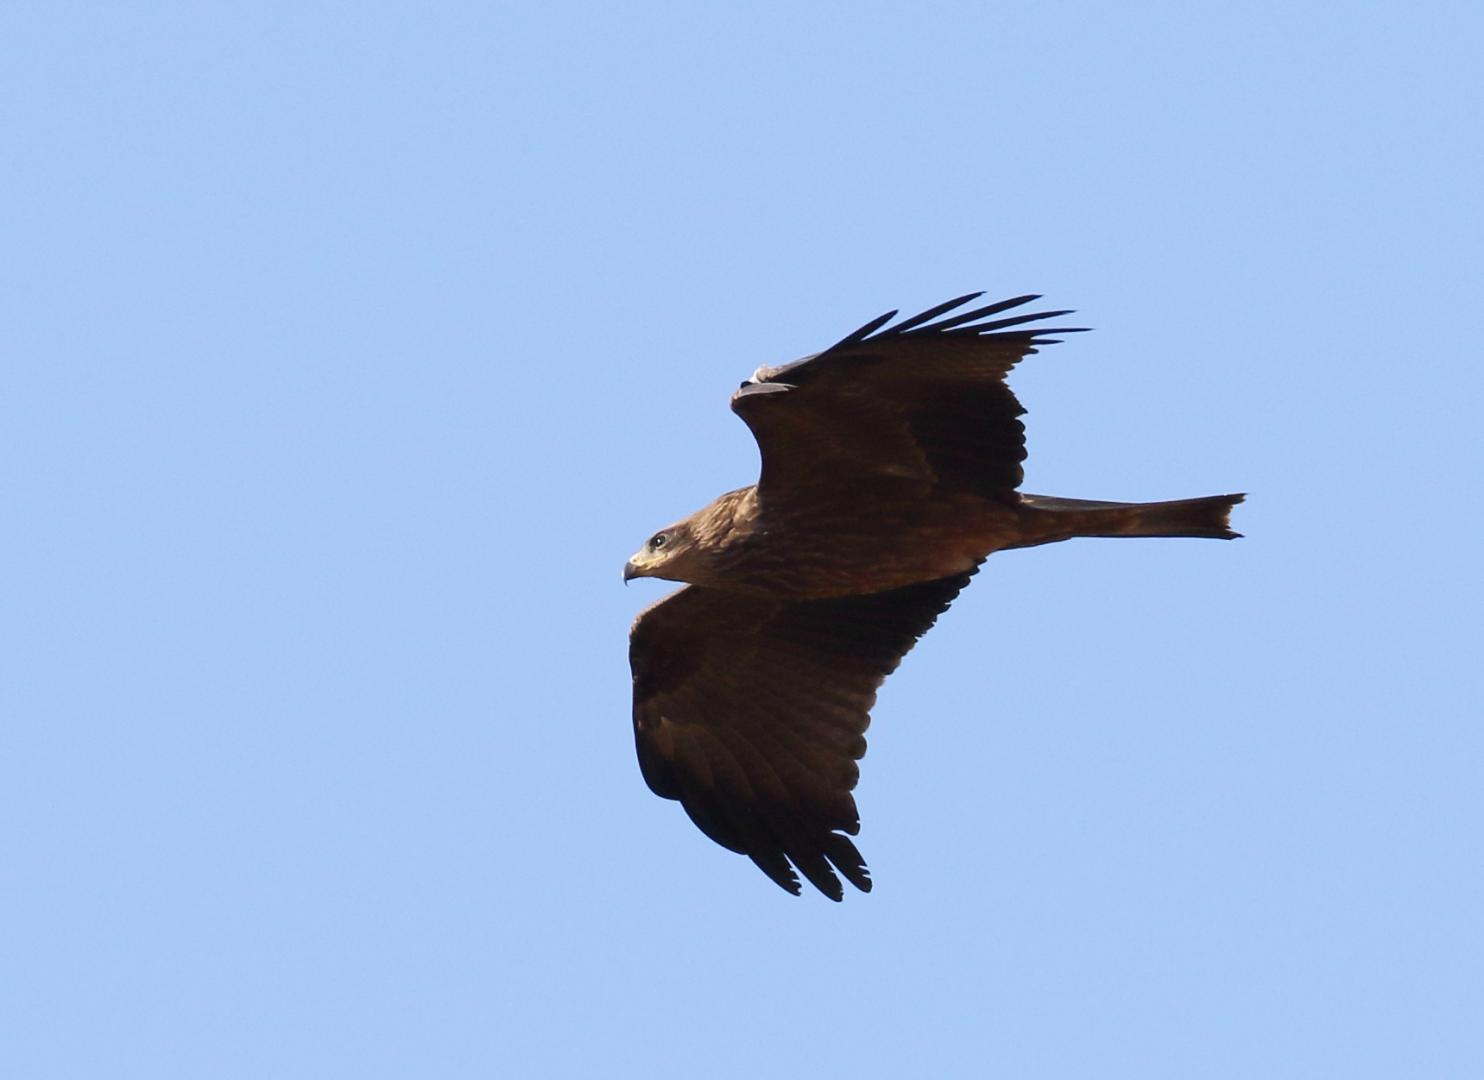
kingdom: Animalia
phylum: Chordata
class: Aves
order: Accipitriformes
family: Accipitridae
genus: Milvus
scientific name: Milvus migrans
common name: Black kite
